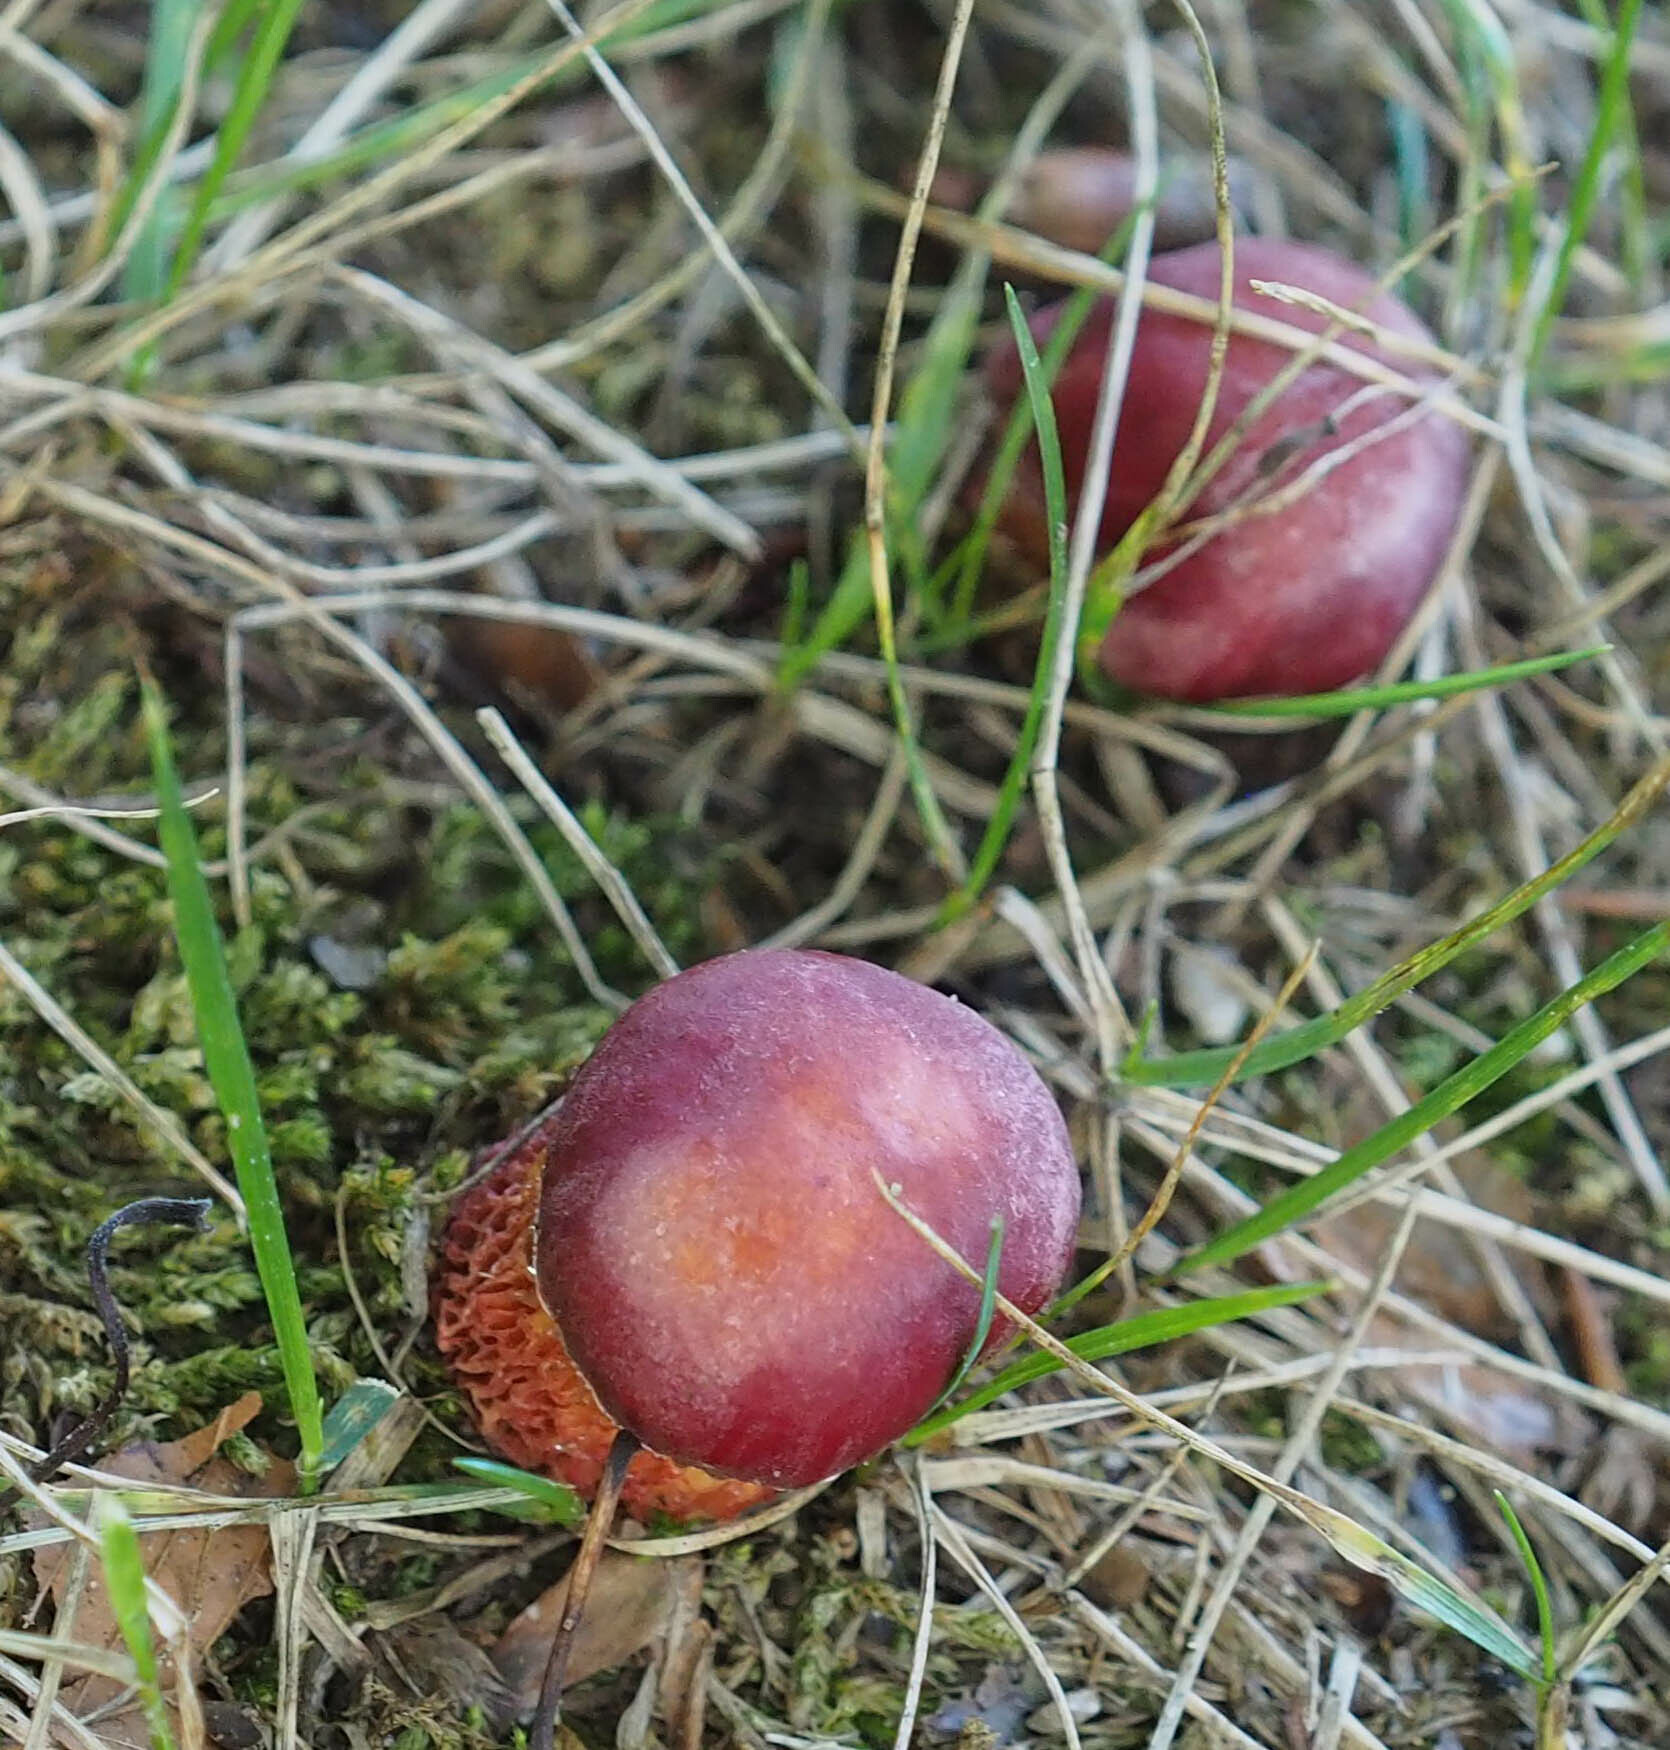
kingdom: Fungi
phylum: Basidiomycota
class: Agaricomycetes
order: Boletales
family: Boletaceae
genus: Butyriboletus
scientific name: Butyriboletus frostii
